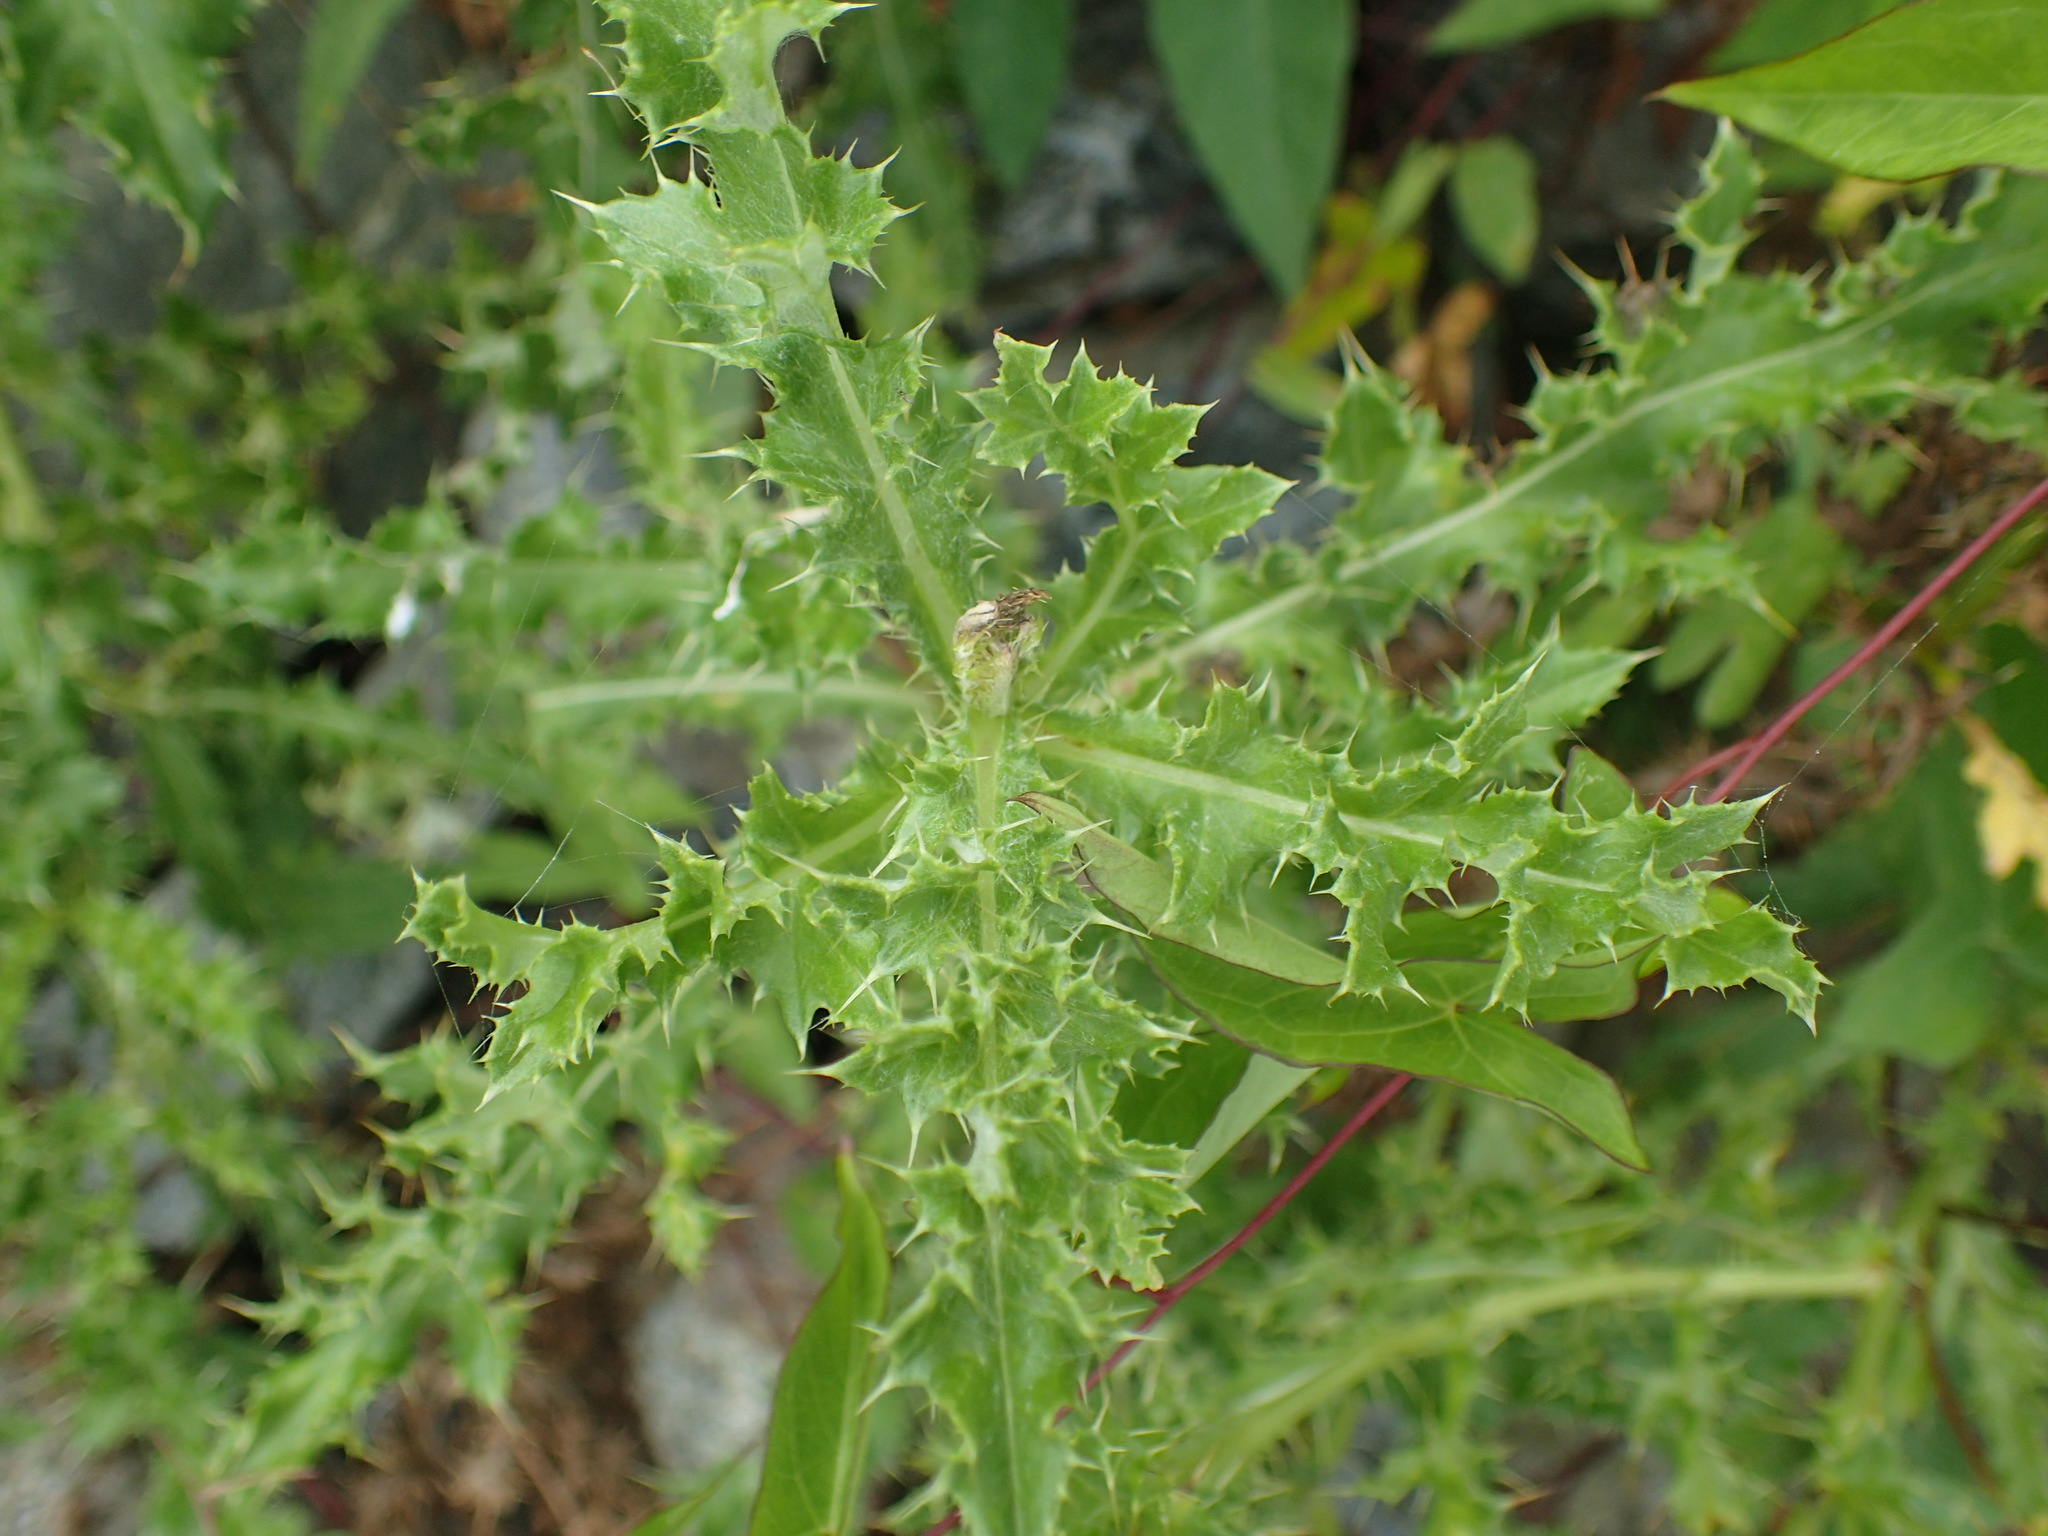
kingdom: Plantae
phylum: Tracheophyta
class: Magnoliopsida
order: Asterales
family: Asteraceae
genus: Cirsium
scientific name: Cirsium arvense
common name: Creeping thistle
